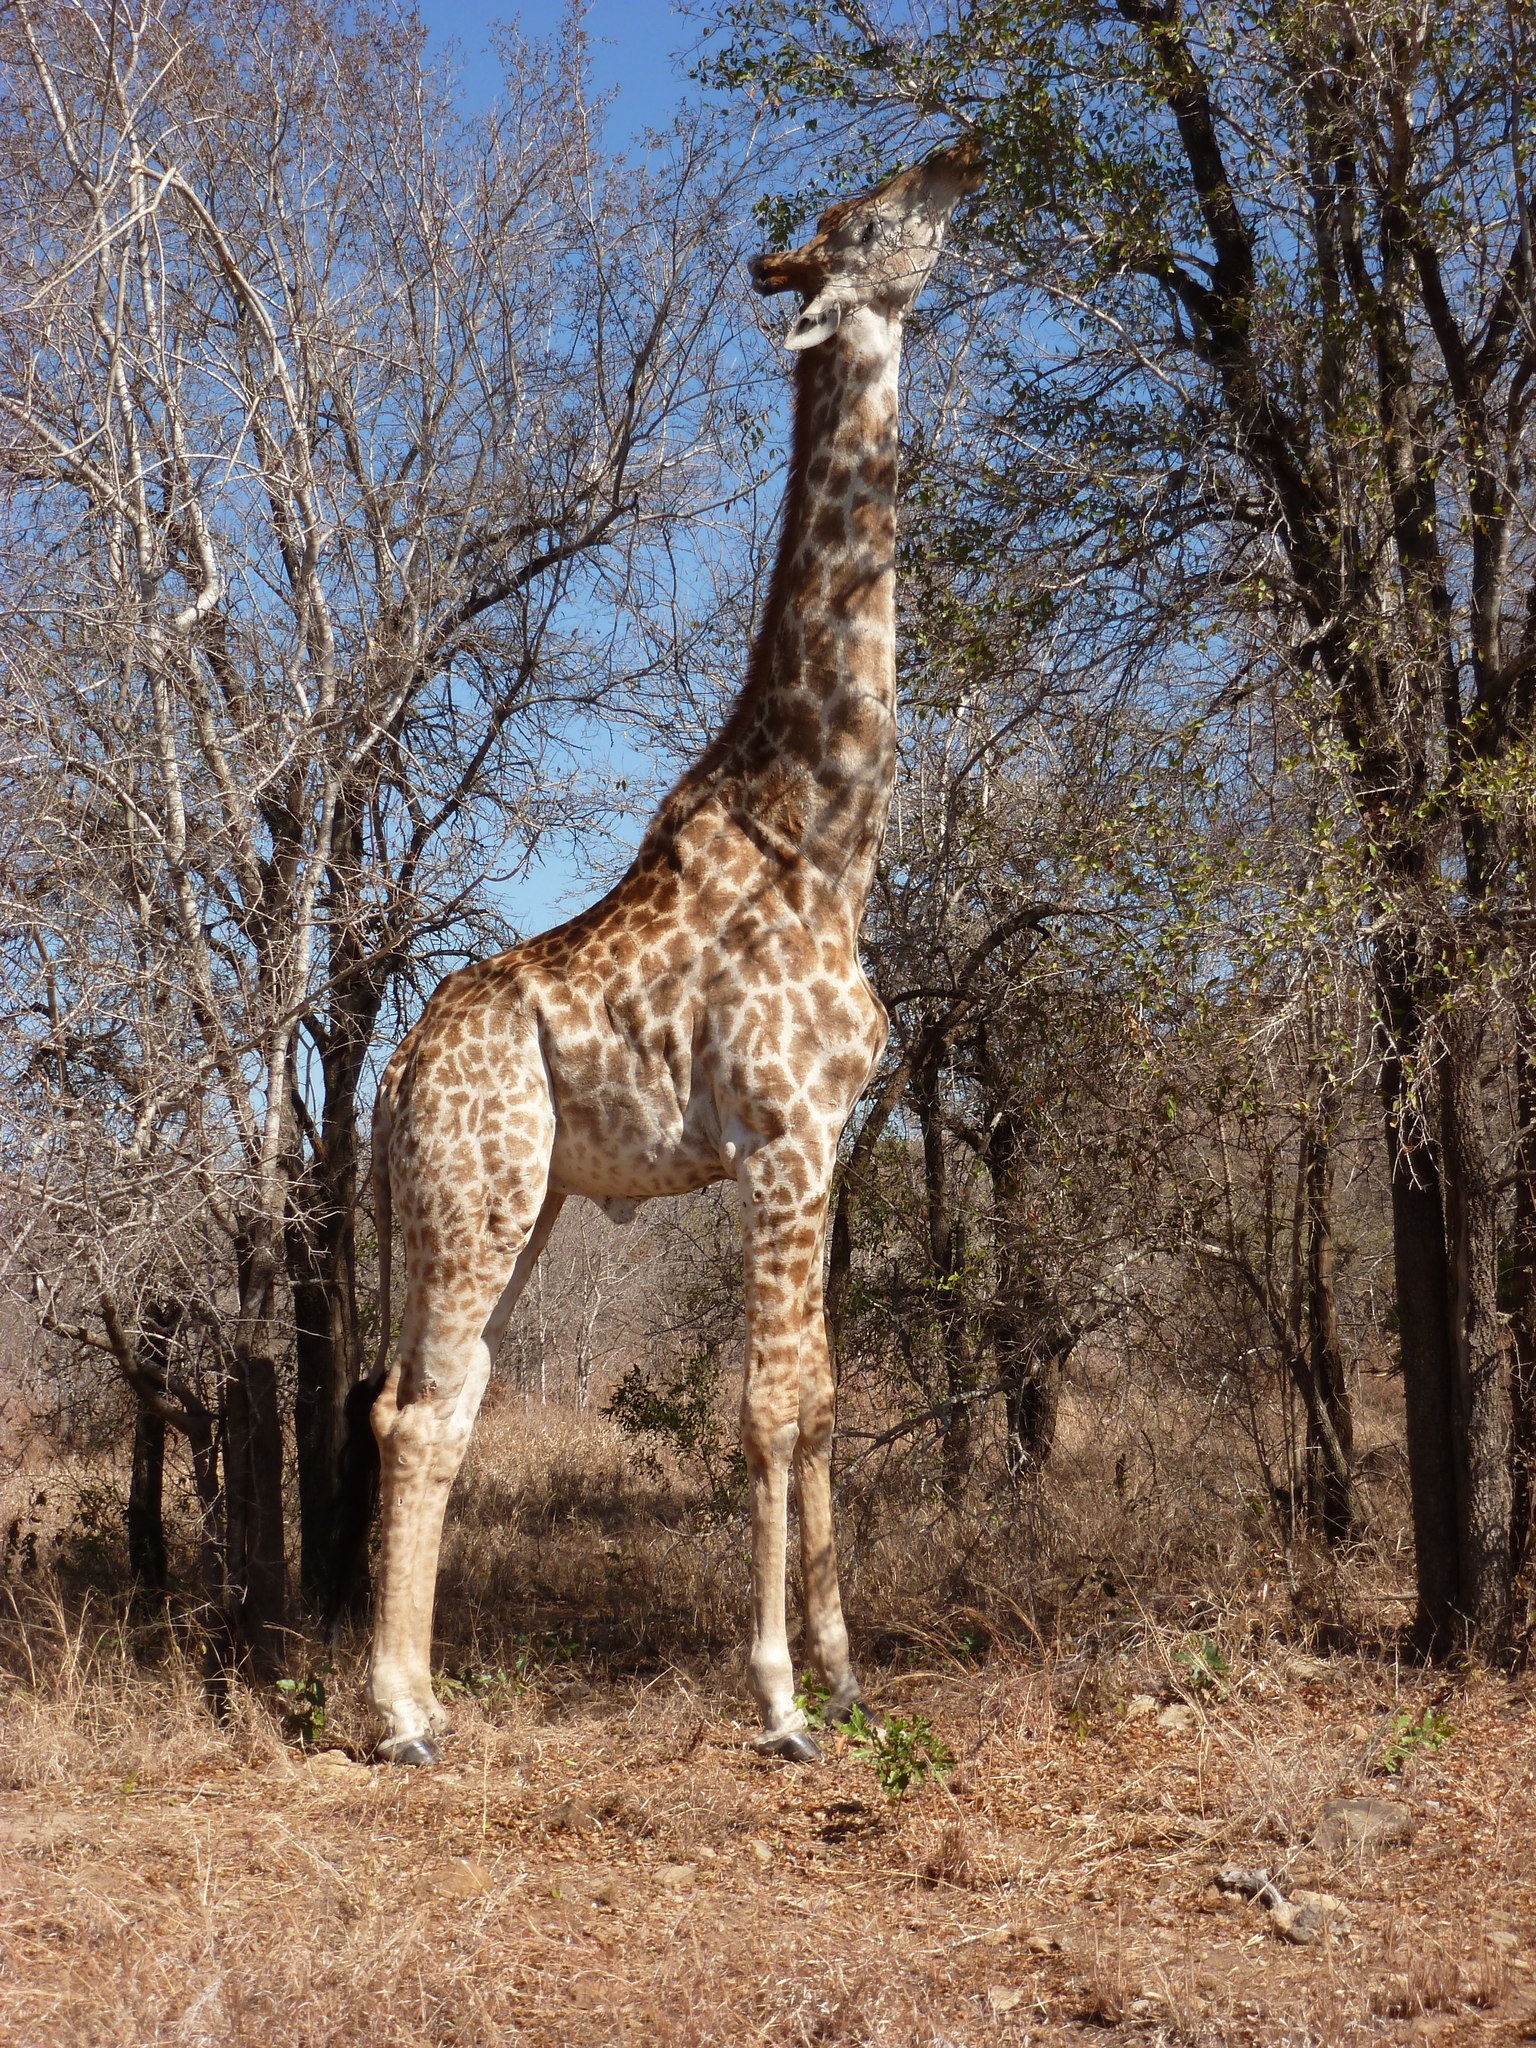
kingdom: Animalia
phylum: Chordata
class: Mammalia
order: Artiodactyla
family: Giraffidae
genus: Giraffa
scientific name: Giraffa giraffa
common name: Southern giraffe
